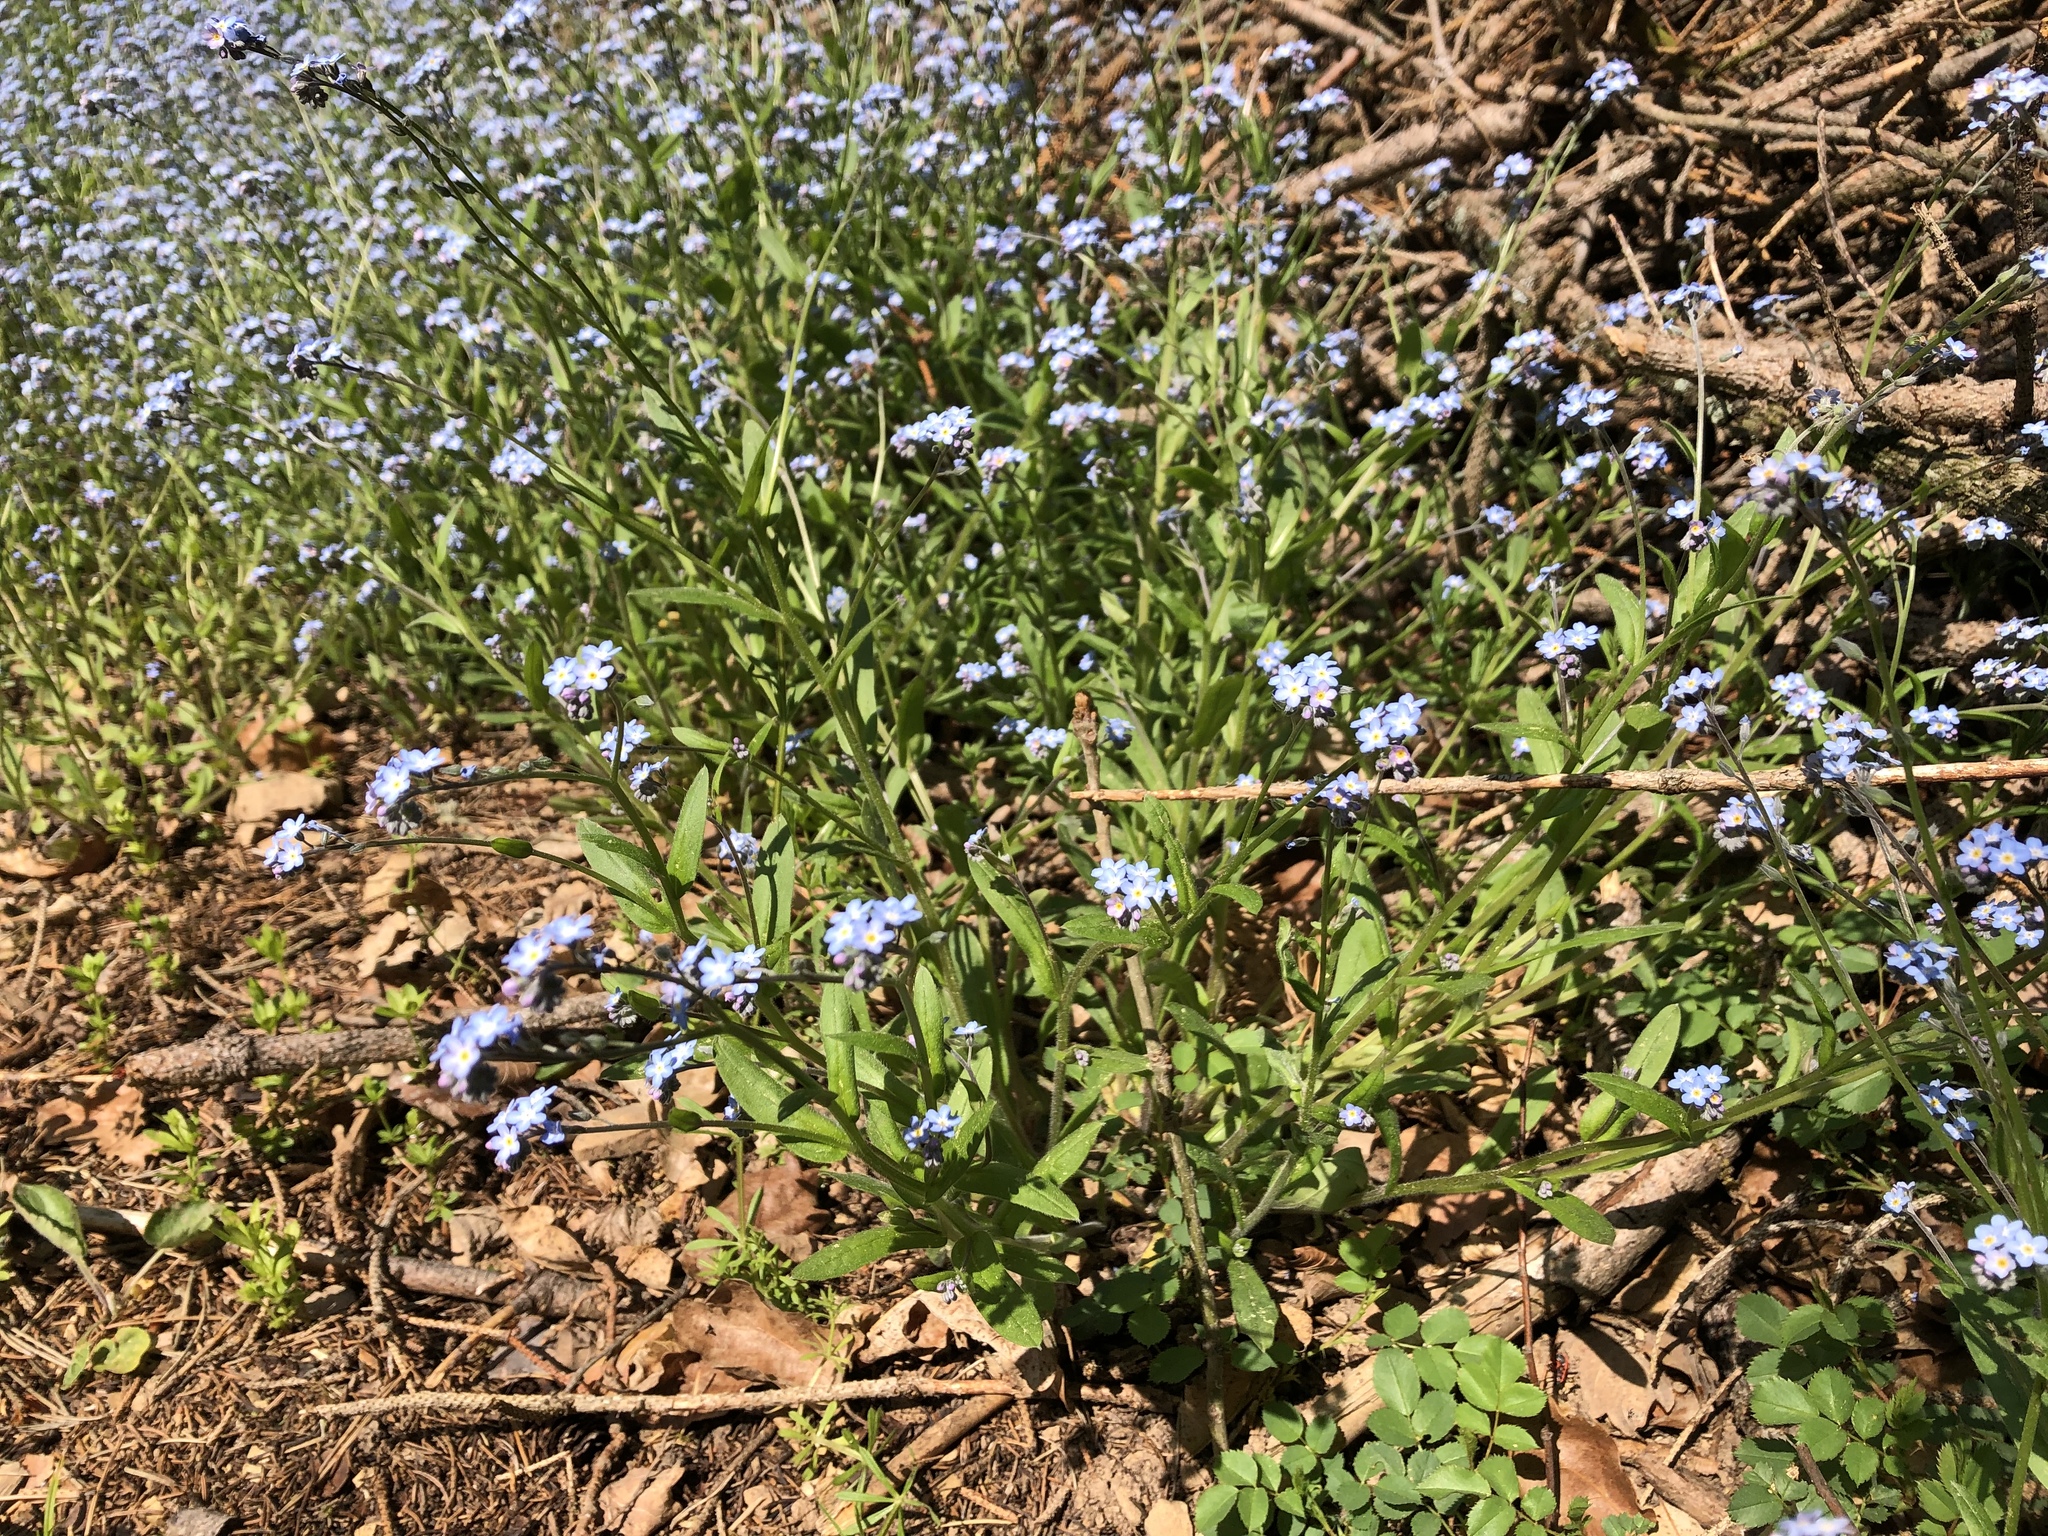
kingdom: Plantae
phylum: Tracheophyta
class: Magnoliopsida
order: Boraginales
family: Boraginaceae
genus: Myosotis
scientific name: Myosotis sylvatica
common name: Wood forget-me-not
